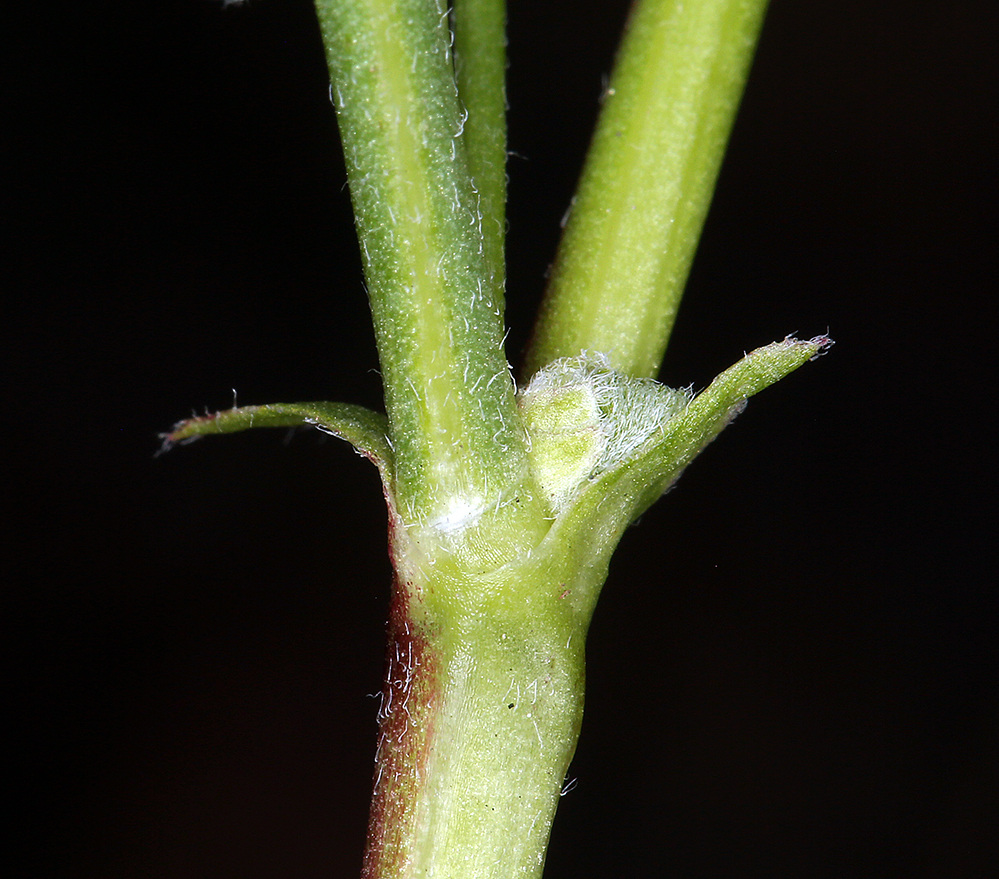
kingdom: Plantae
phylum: Tracheophyta
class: Magnoliopsida
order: Fabales
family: Fabaceae
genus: Astragalus
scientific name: Astragalus bolanderi
